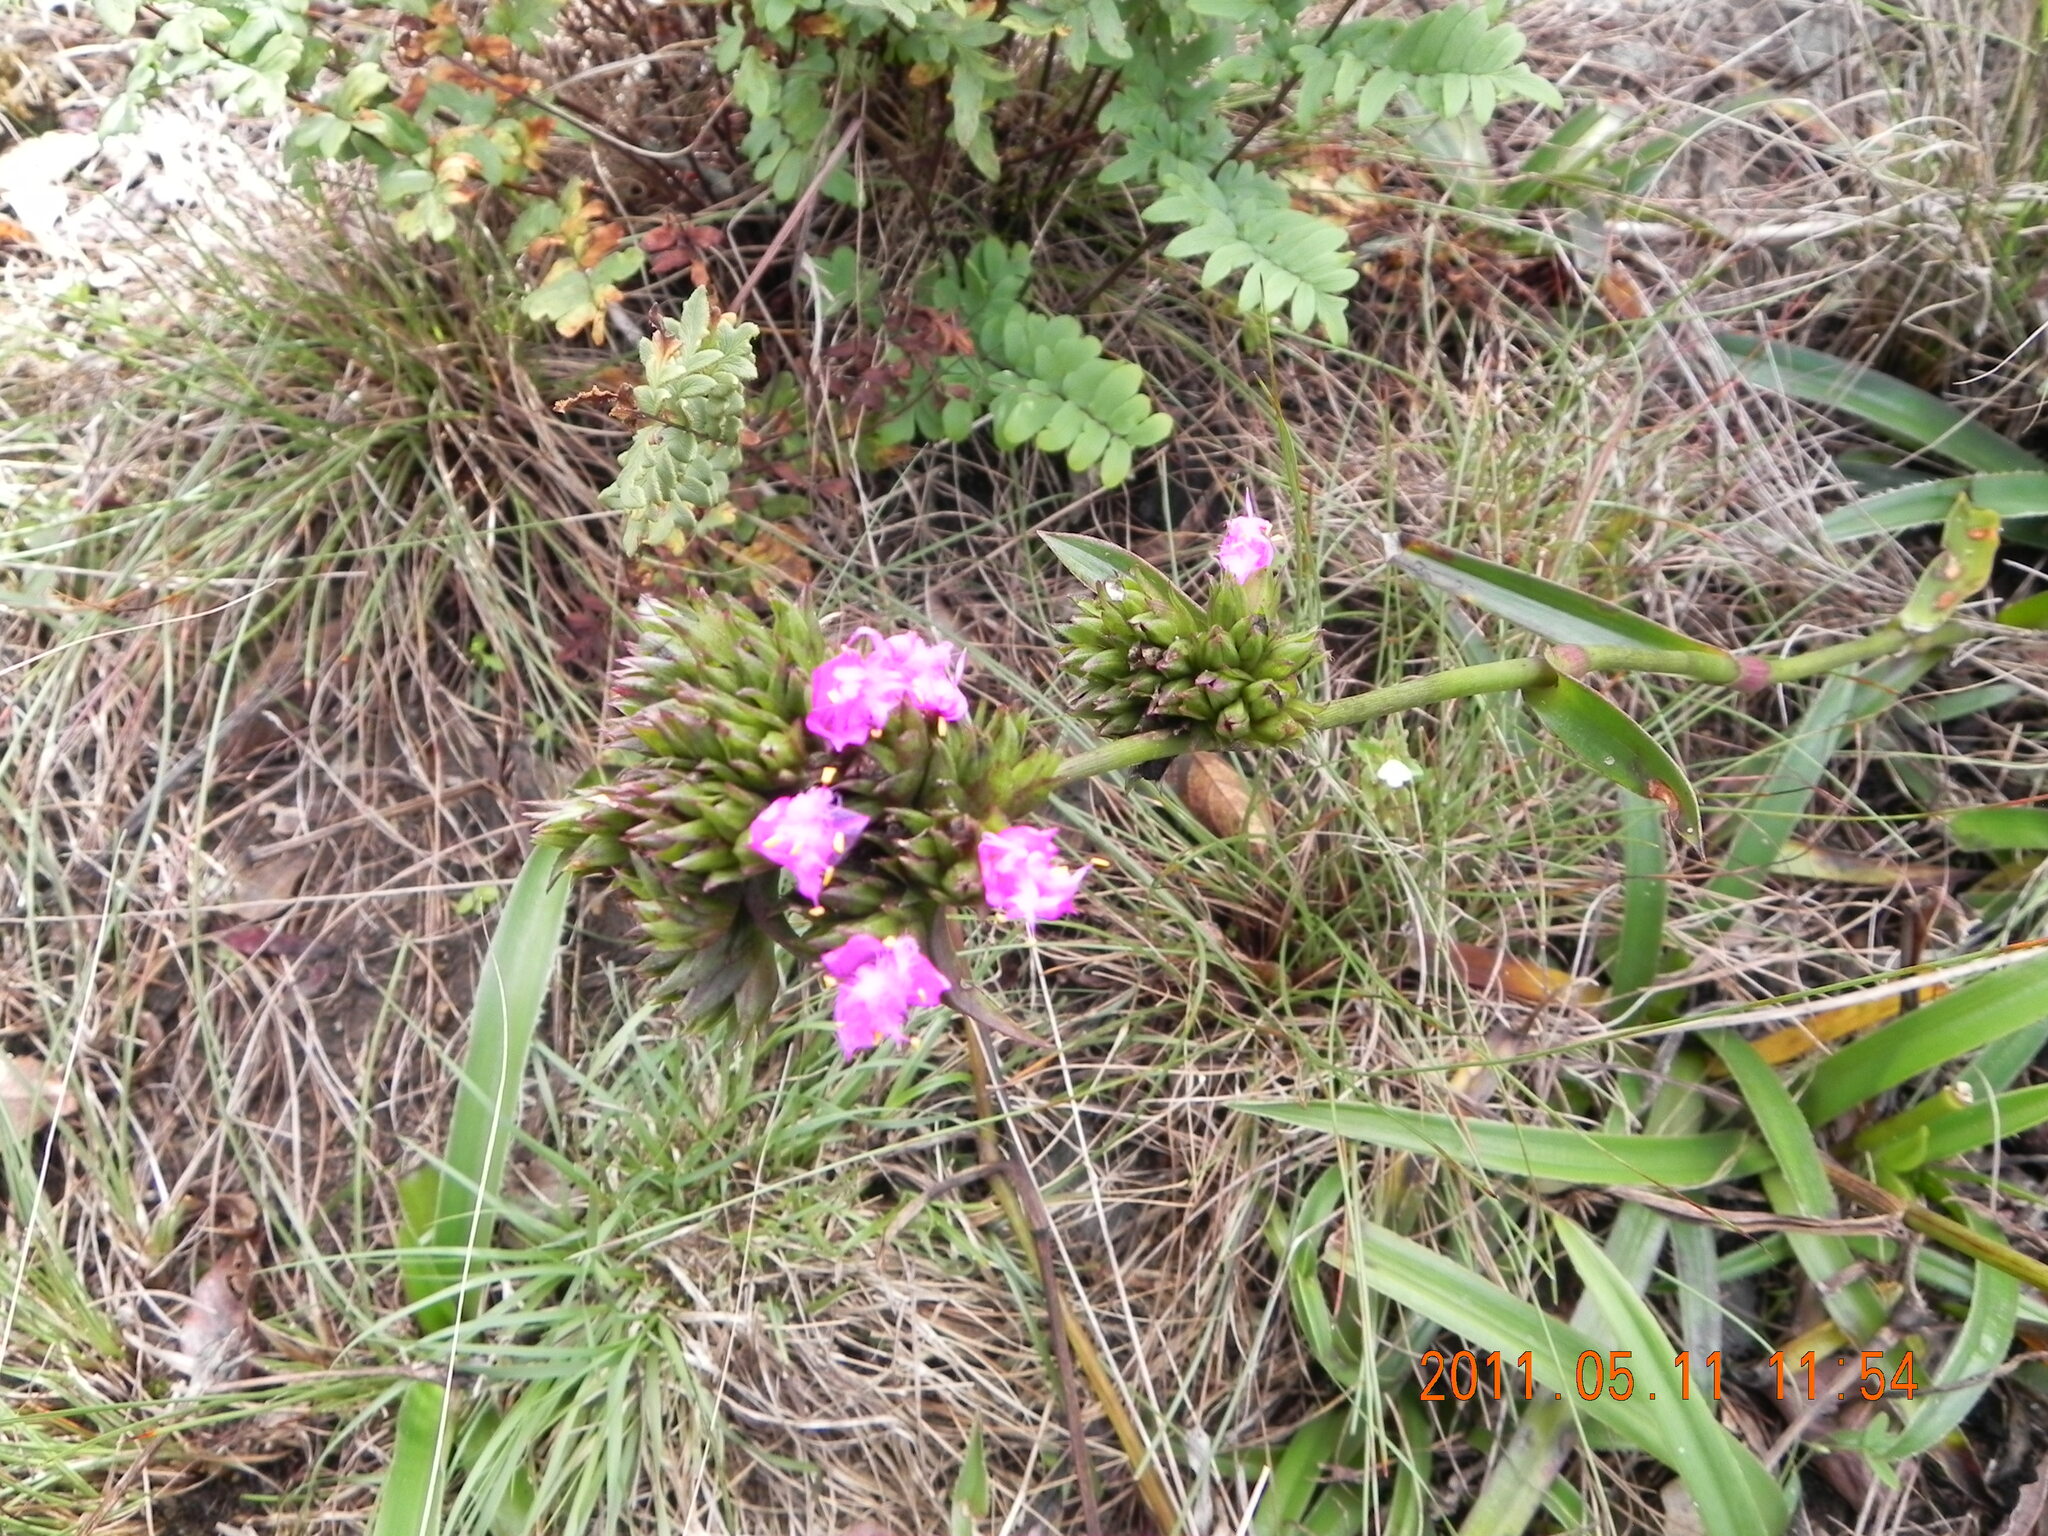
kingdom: Plantae
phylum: Tracheophyta
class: Liliopsida
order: Commelinales
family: Commelinaceae
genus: Cyanotis
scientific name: Cyanotis speciosa
